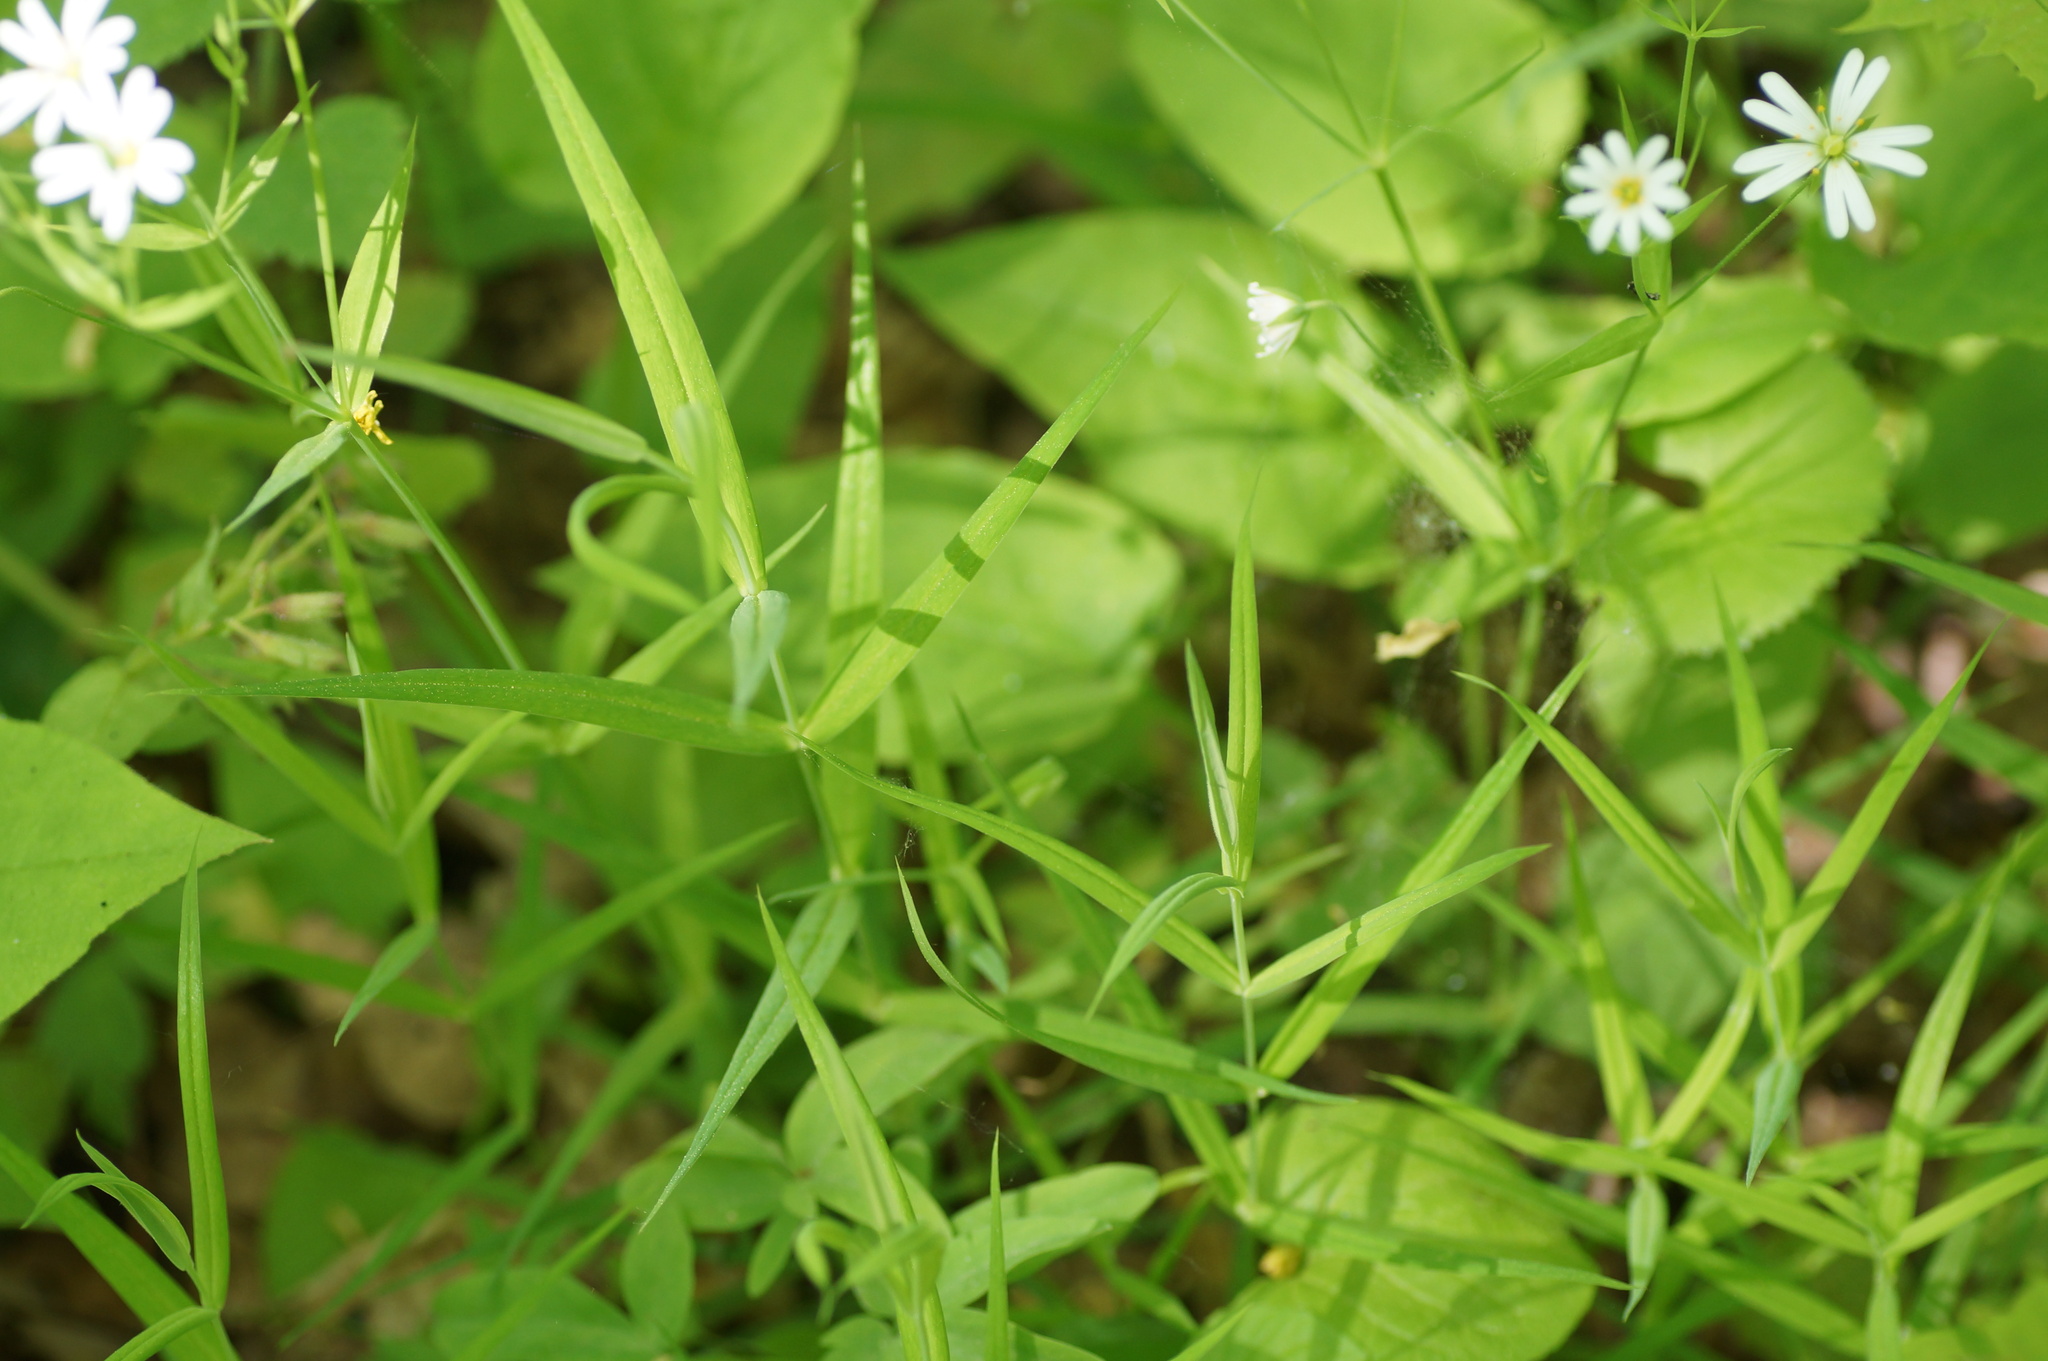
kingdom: Plantae
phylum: Tracheophyta
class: Magnoliopsida
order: Caryophyllales
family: Caryophyllaceae
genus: Rabelera
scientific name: Rabelera holostea
